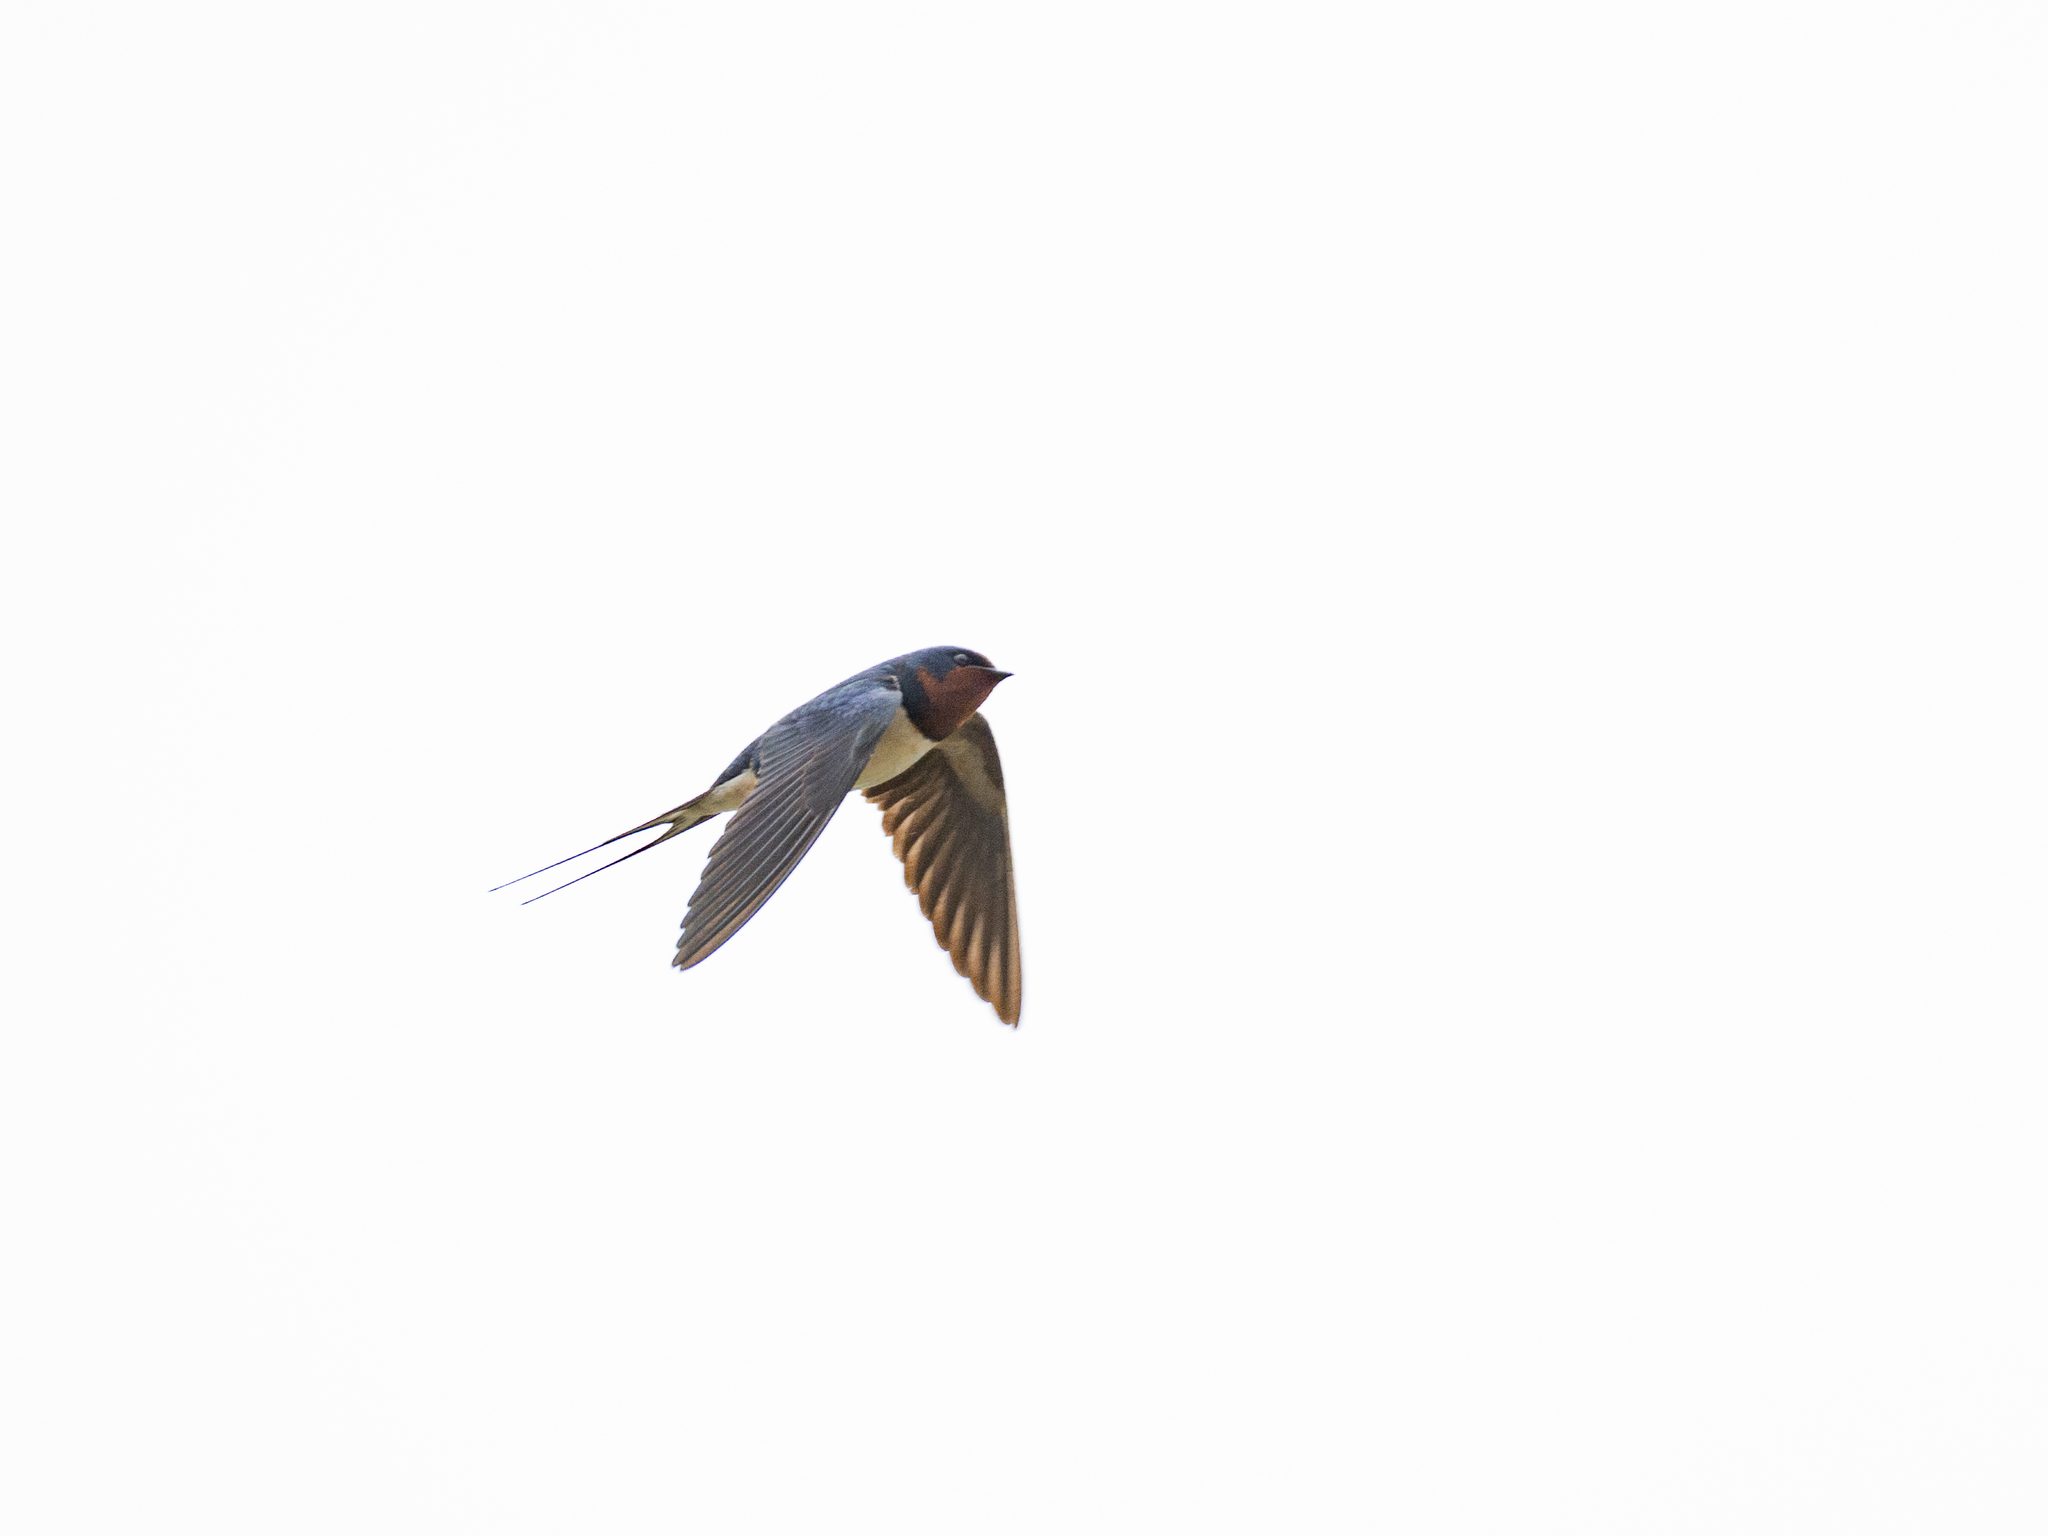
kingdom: Animalia
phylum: Chordata
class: Aves
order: Passeriformes
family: Hirundinidae
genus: Hirundo
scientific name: Hirundo rustica
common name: Barn swallow
